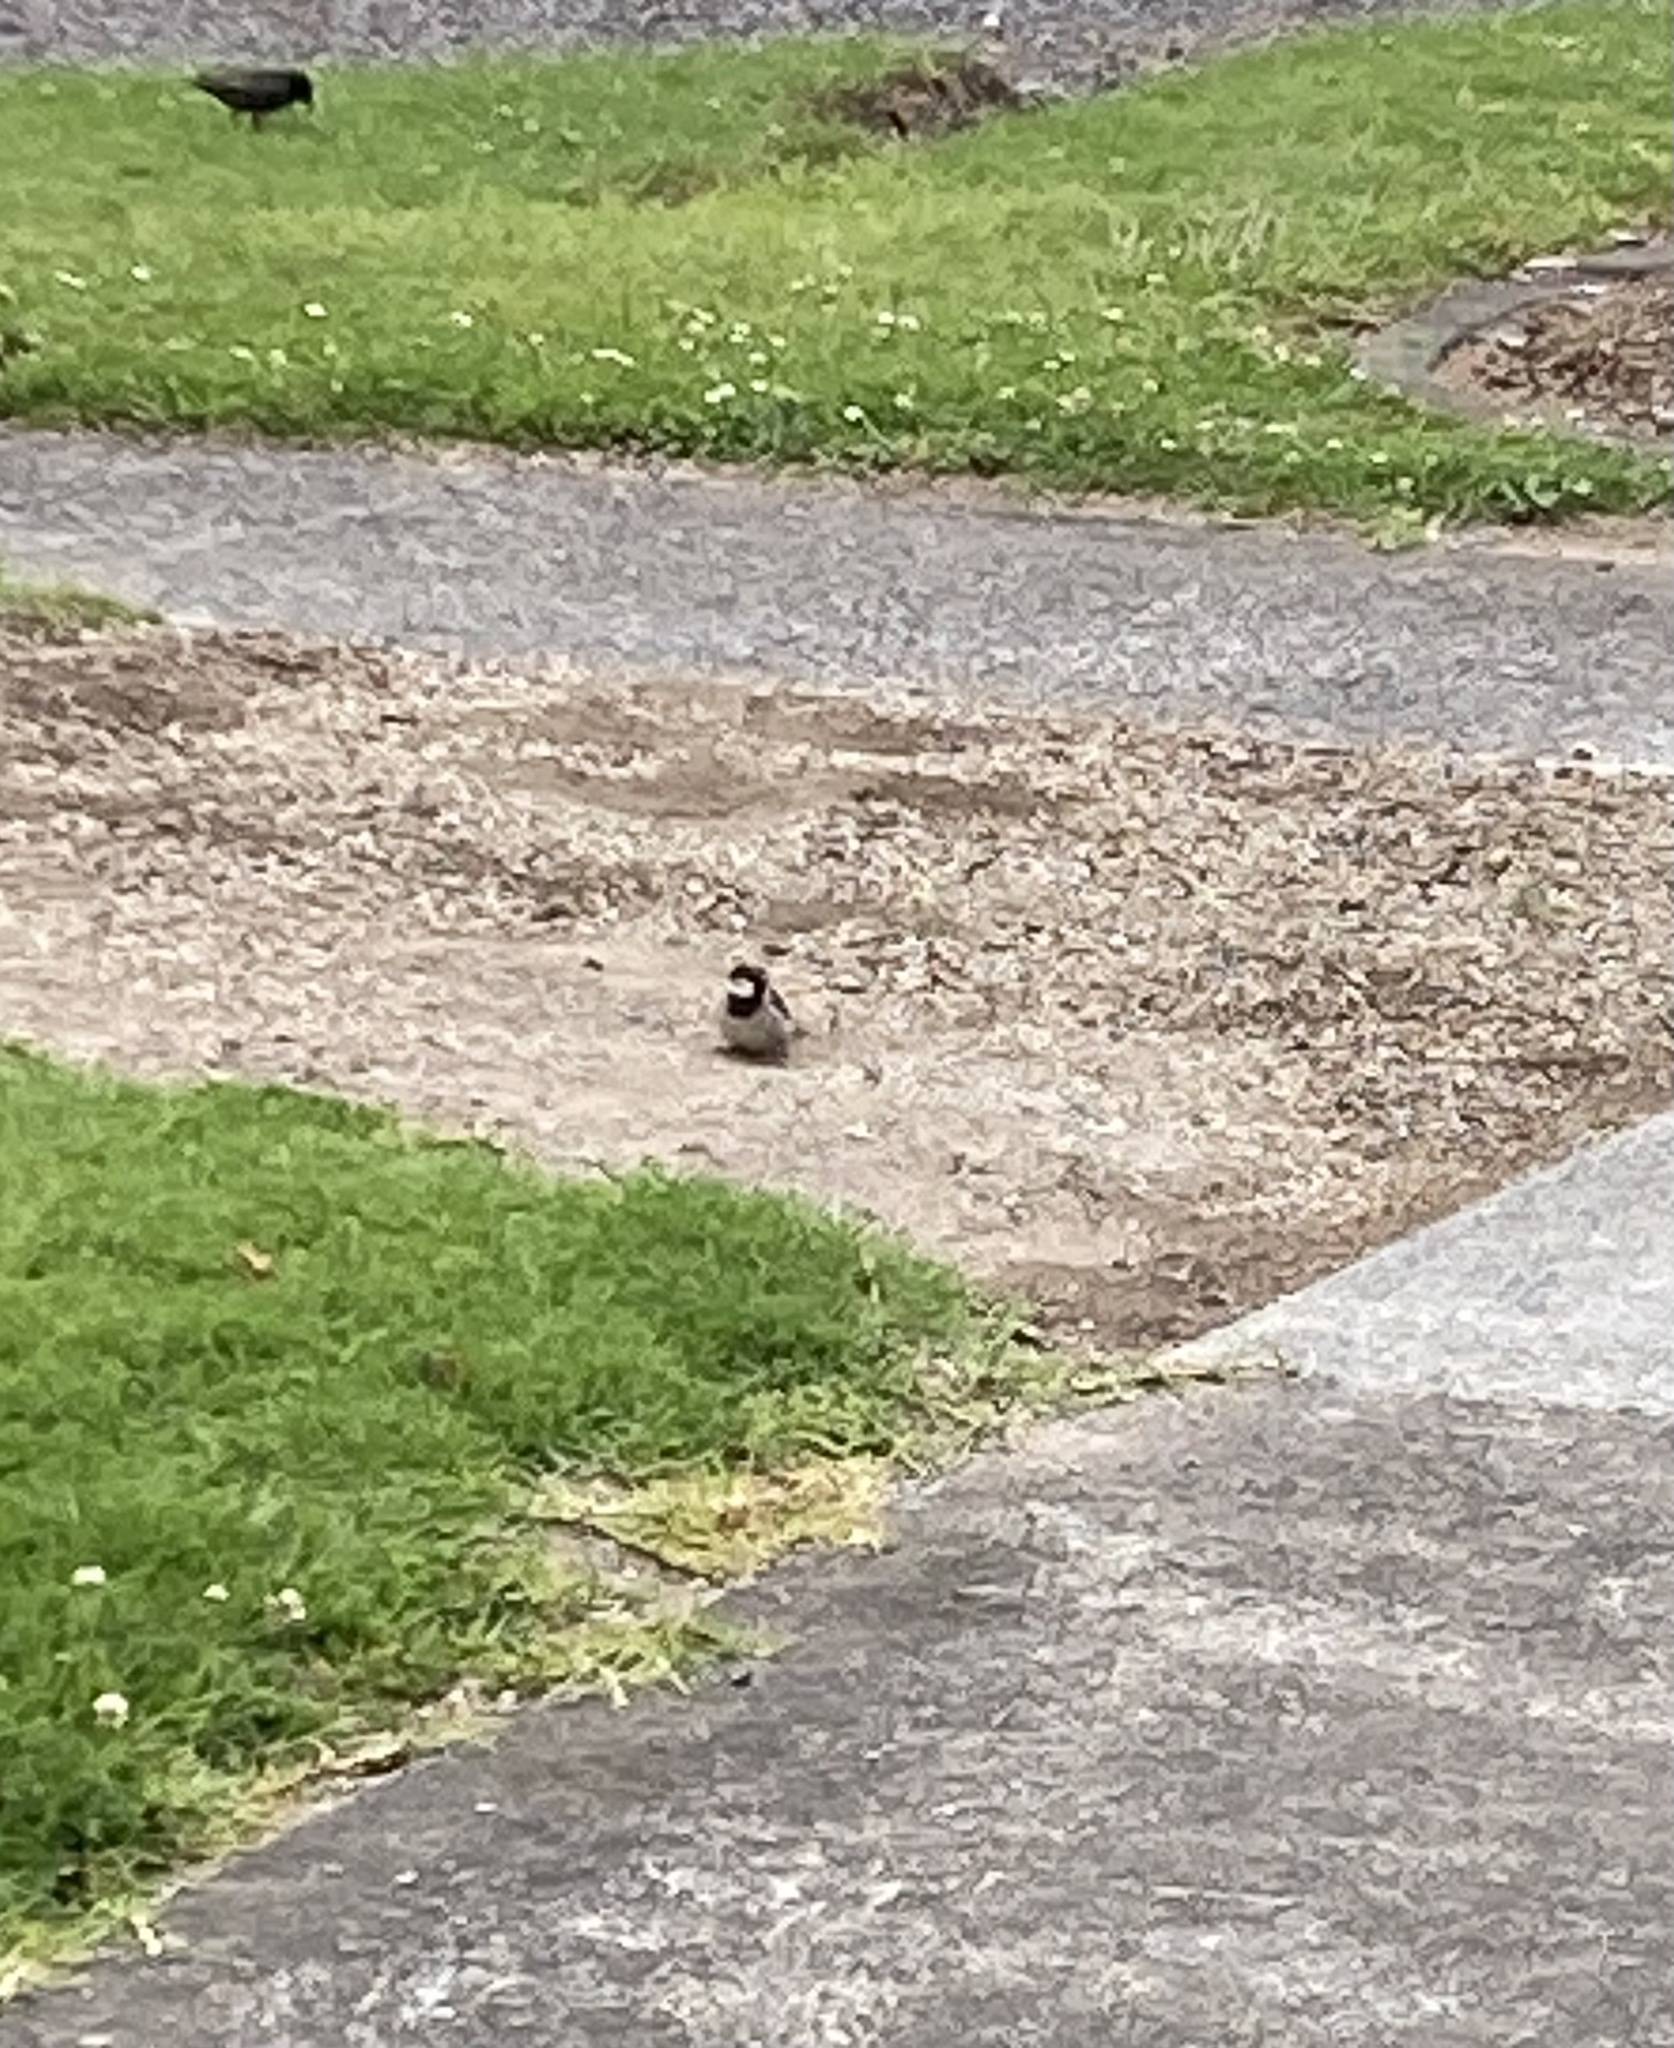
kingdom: Animalia
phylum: Chordata
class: Aves
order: Passeriformes
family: Passeridae
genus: Passer
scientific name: Passer domesticus
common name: House sparrow
